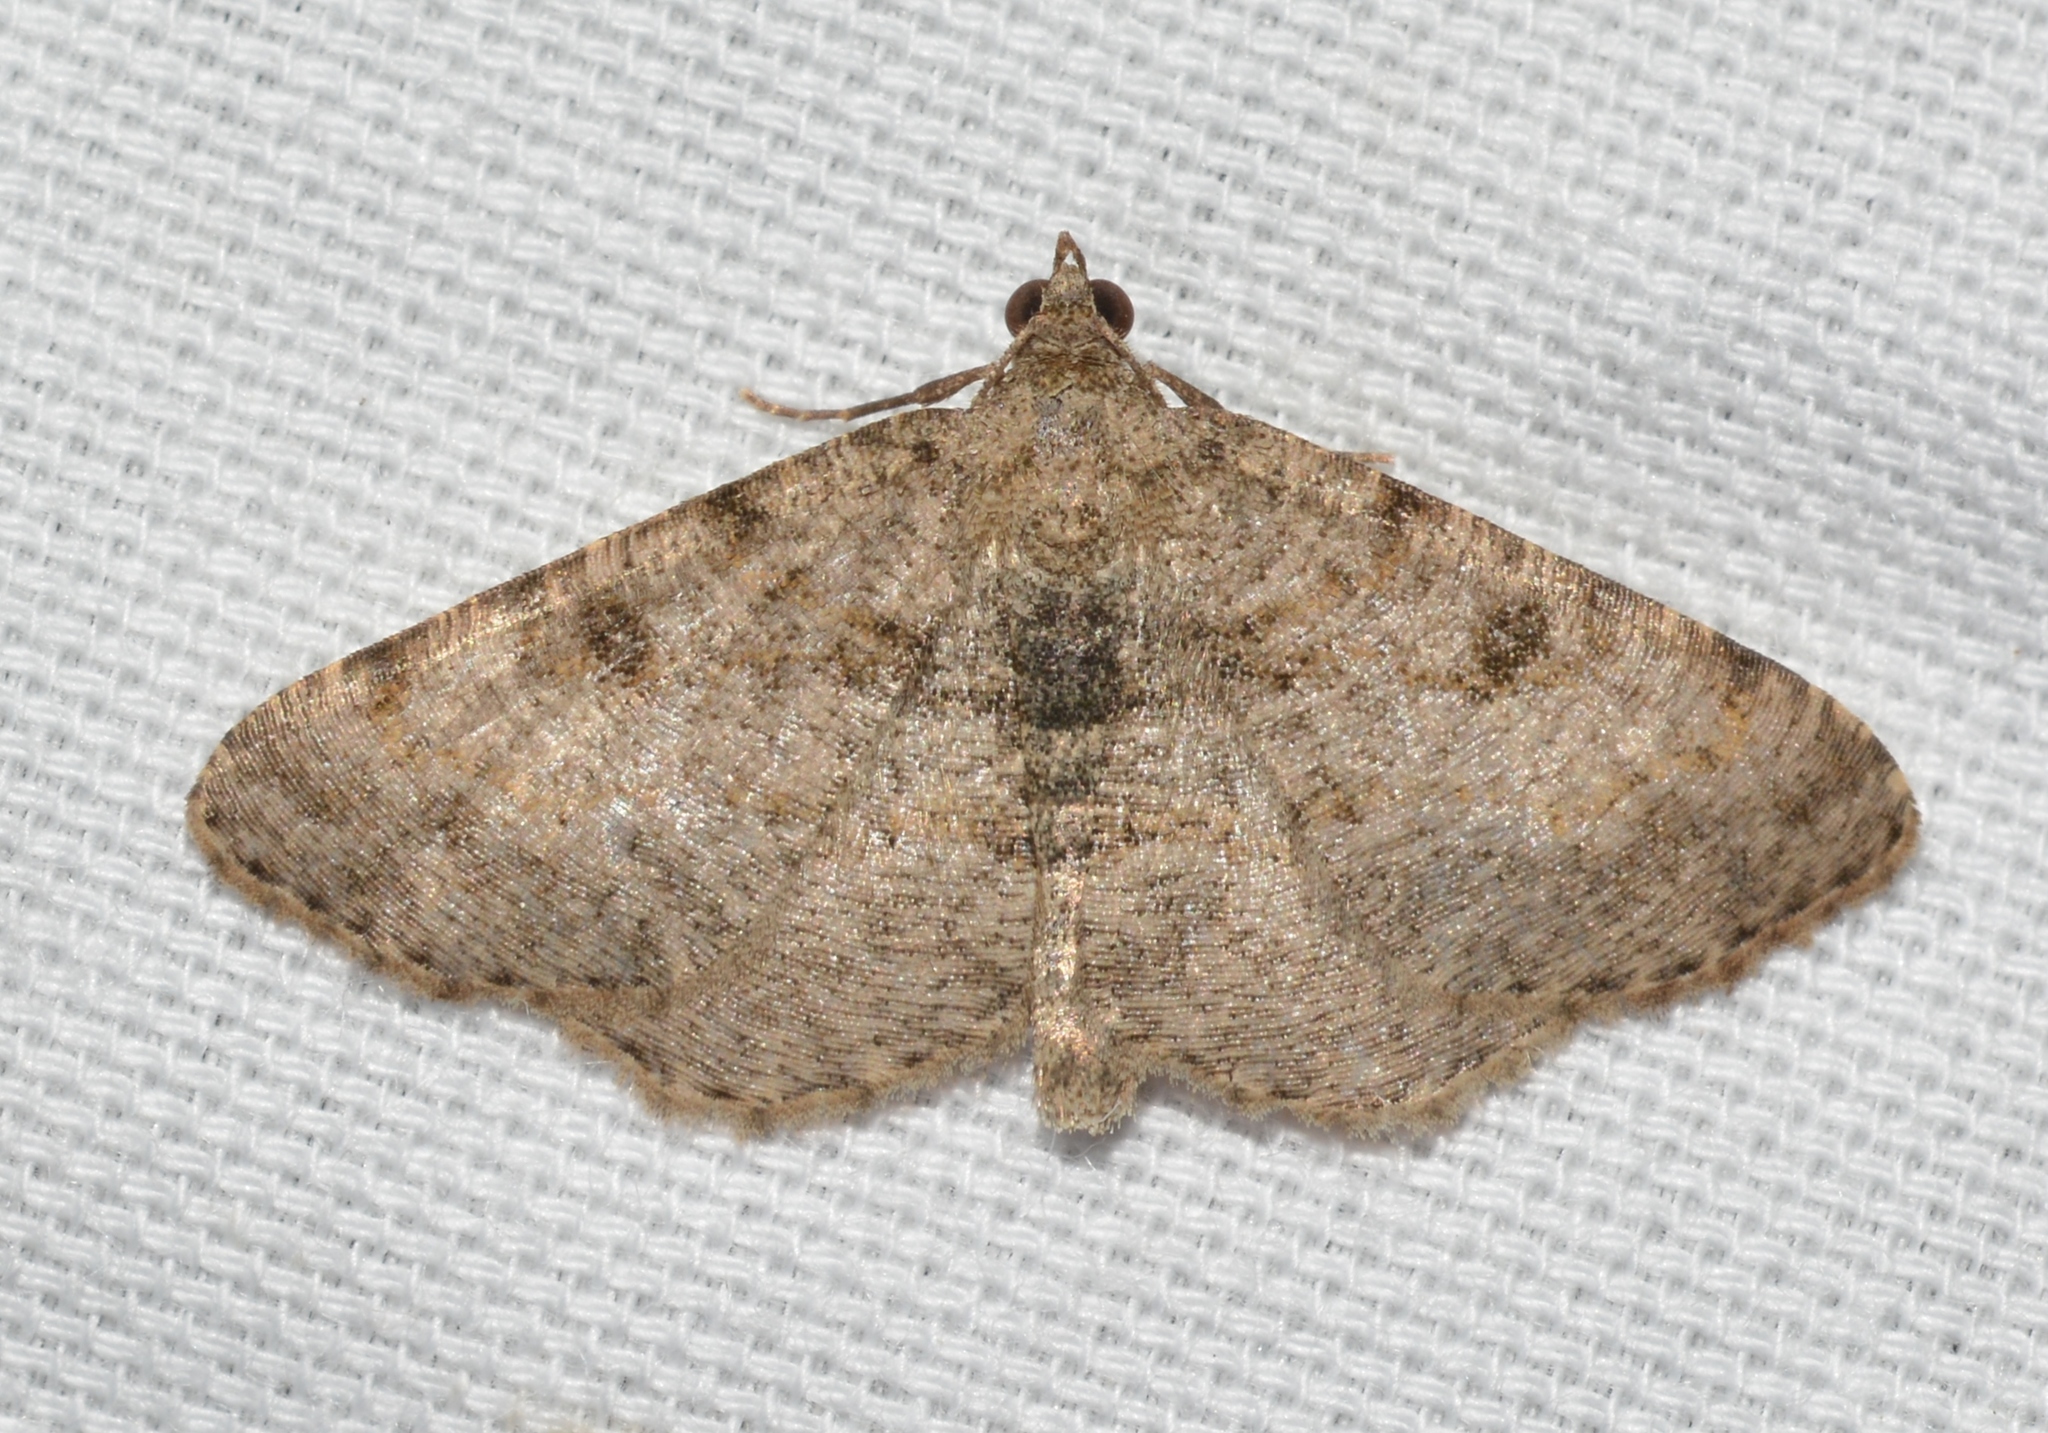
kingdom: Animalia
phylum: Arthropoda
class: Insecta
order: Lepidoptera
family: Geometridae
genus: Digrammia
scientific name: Digrammia gnophosaria
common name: Hollow-spotted angle
